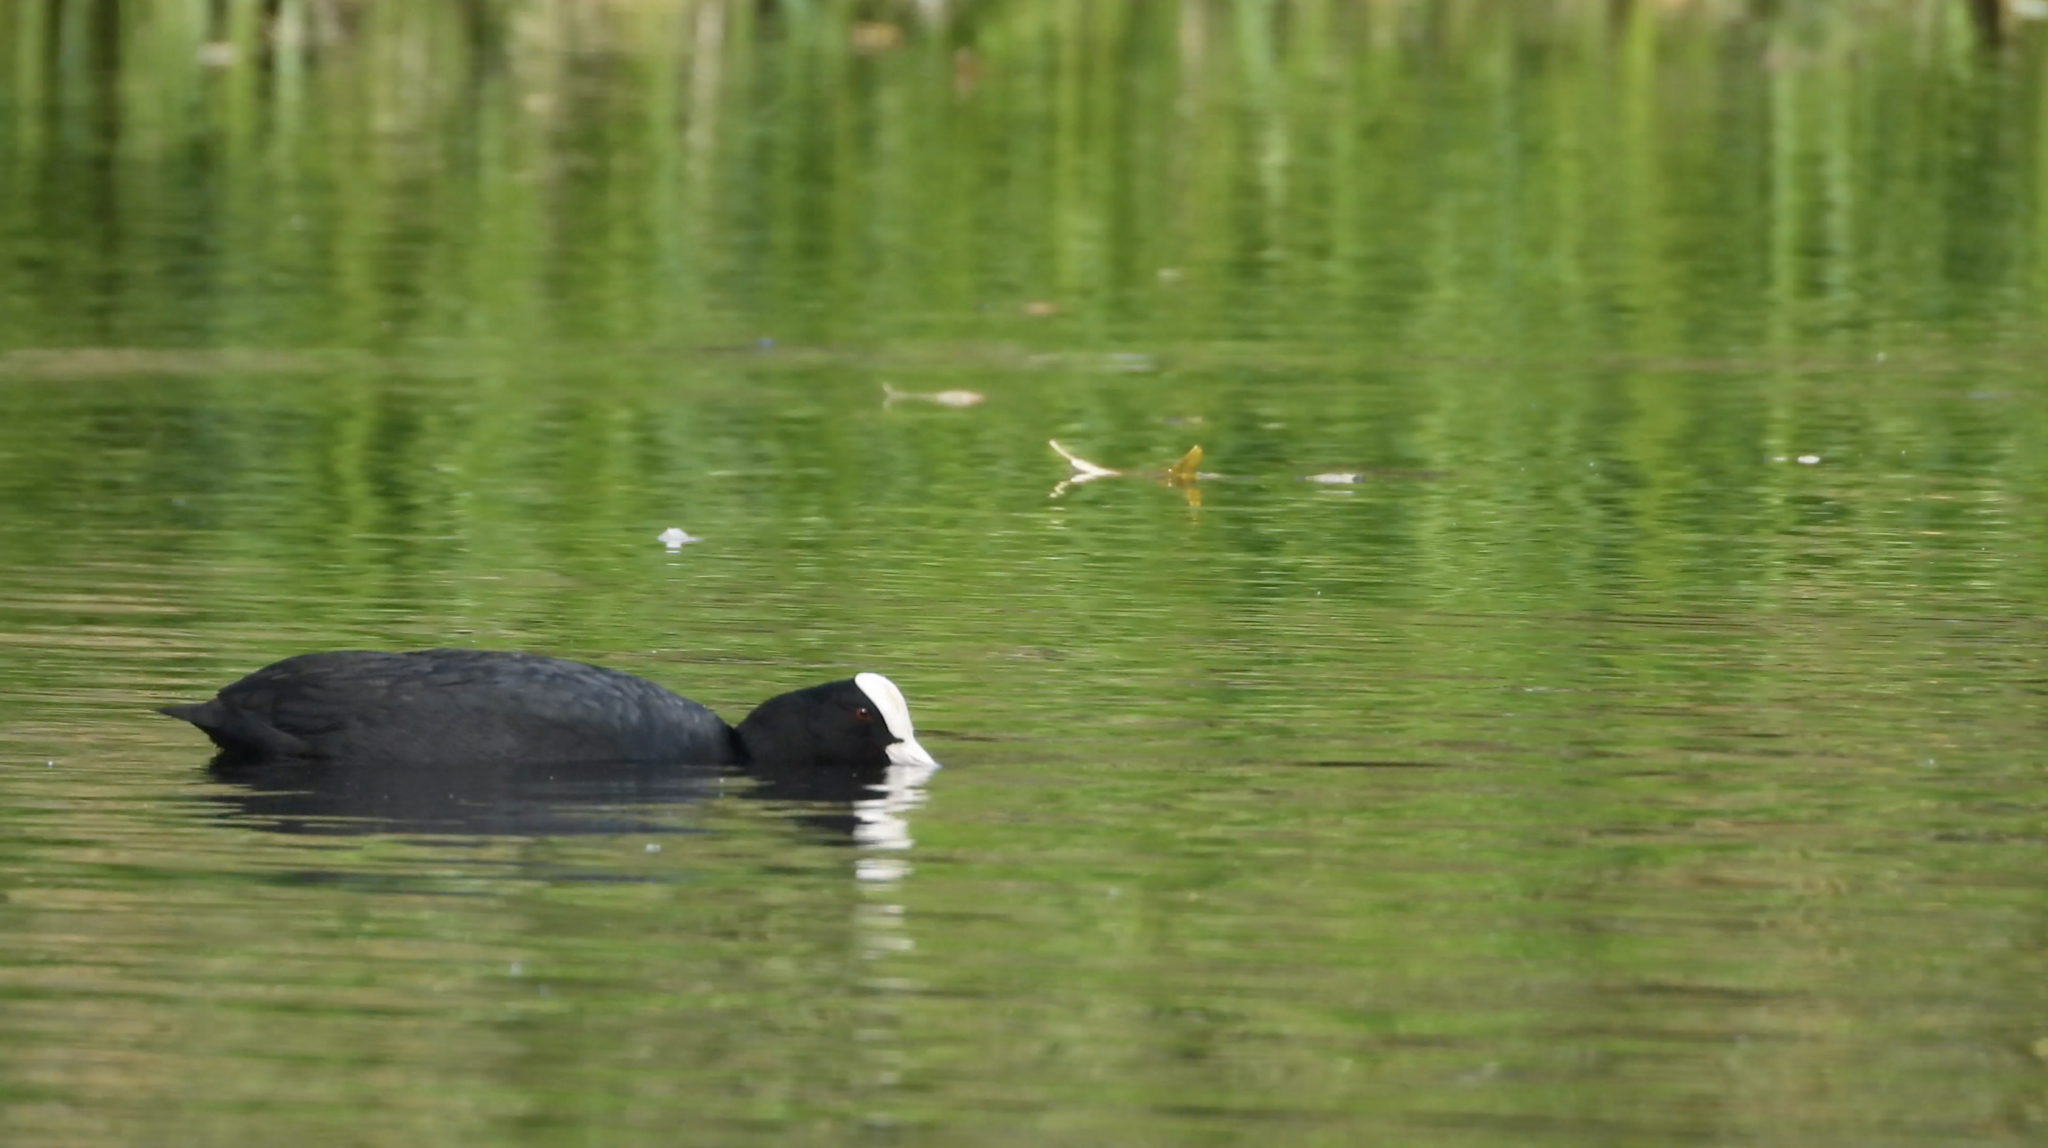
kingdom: Animalia
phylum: Chordata
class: Aves
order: Gruiformes
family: Rallidae
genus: Fulica
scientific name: Fulica atra
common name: Eurasian coot
